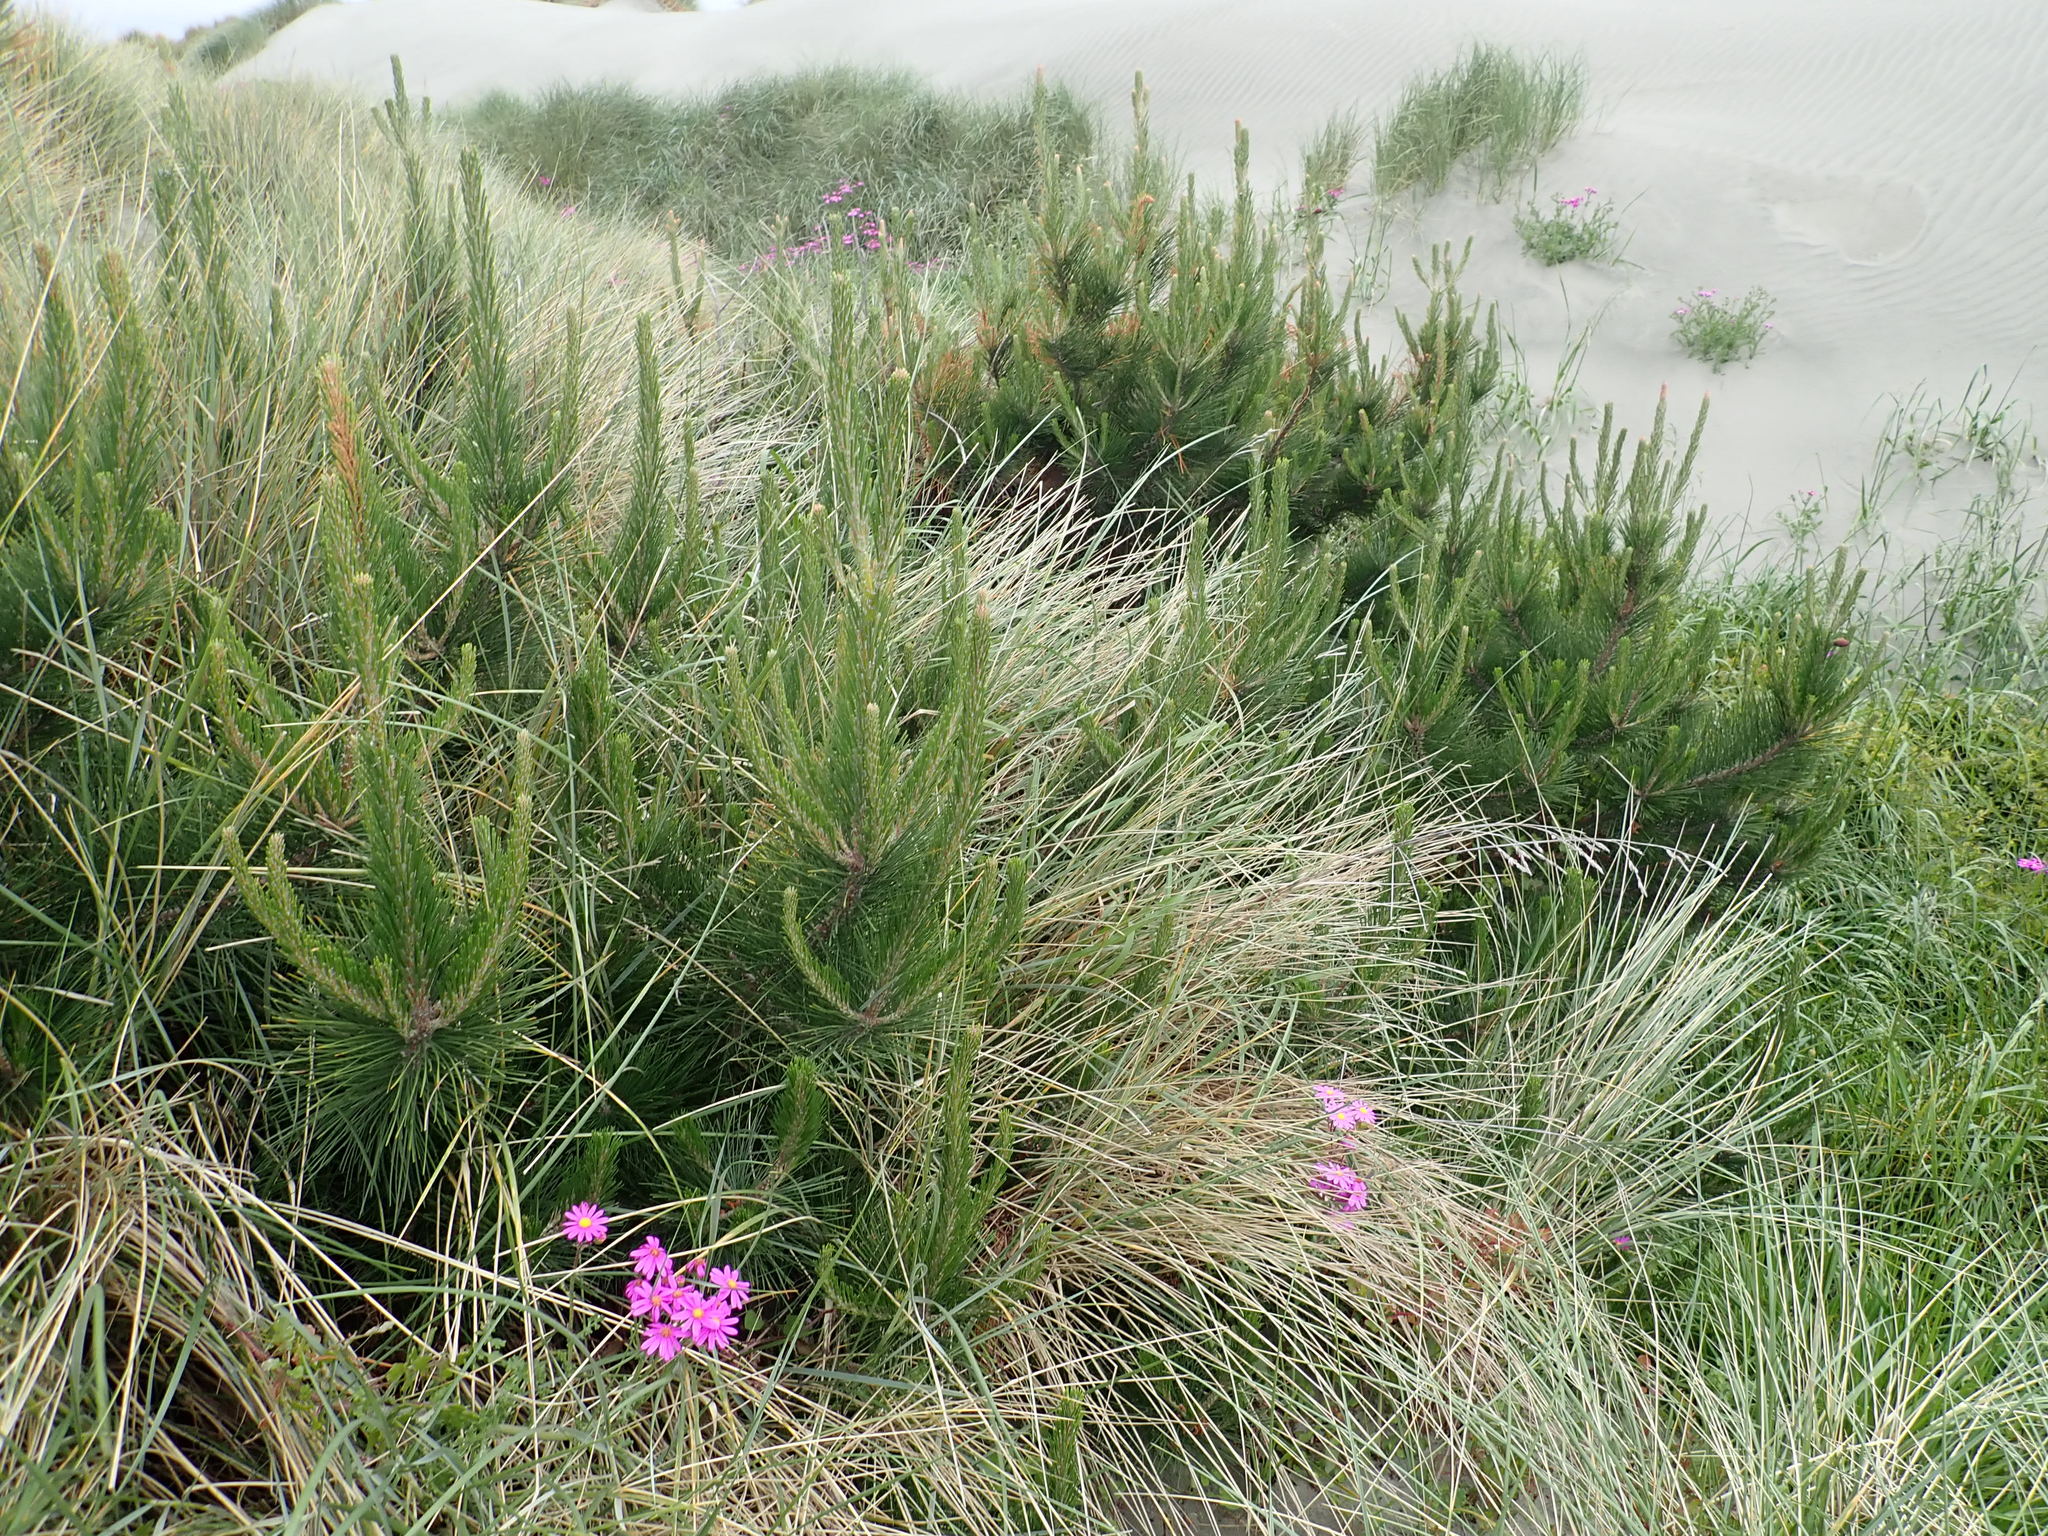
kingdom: Plantae
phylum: Tracheophyta
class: Pinopsida
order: Pinales
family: Pinaceae
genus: Pinus
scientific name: Pinus radiata
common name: Monterey pine
